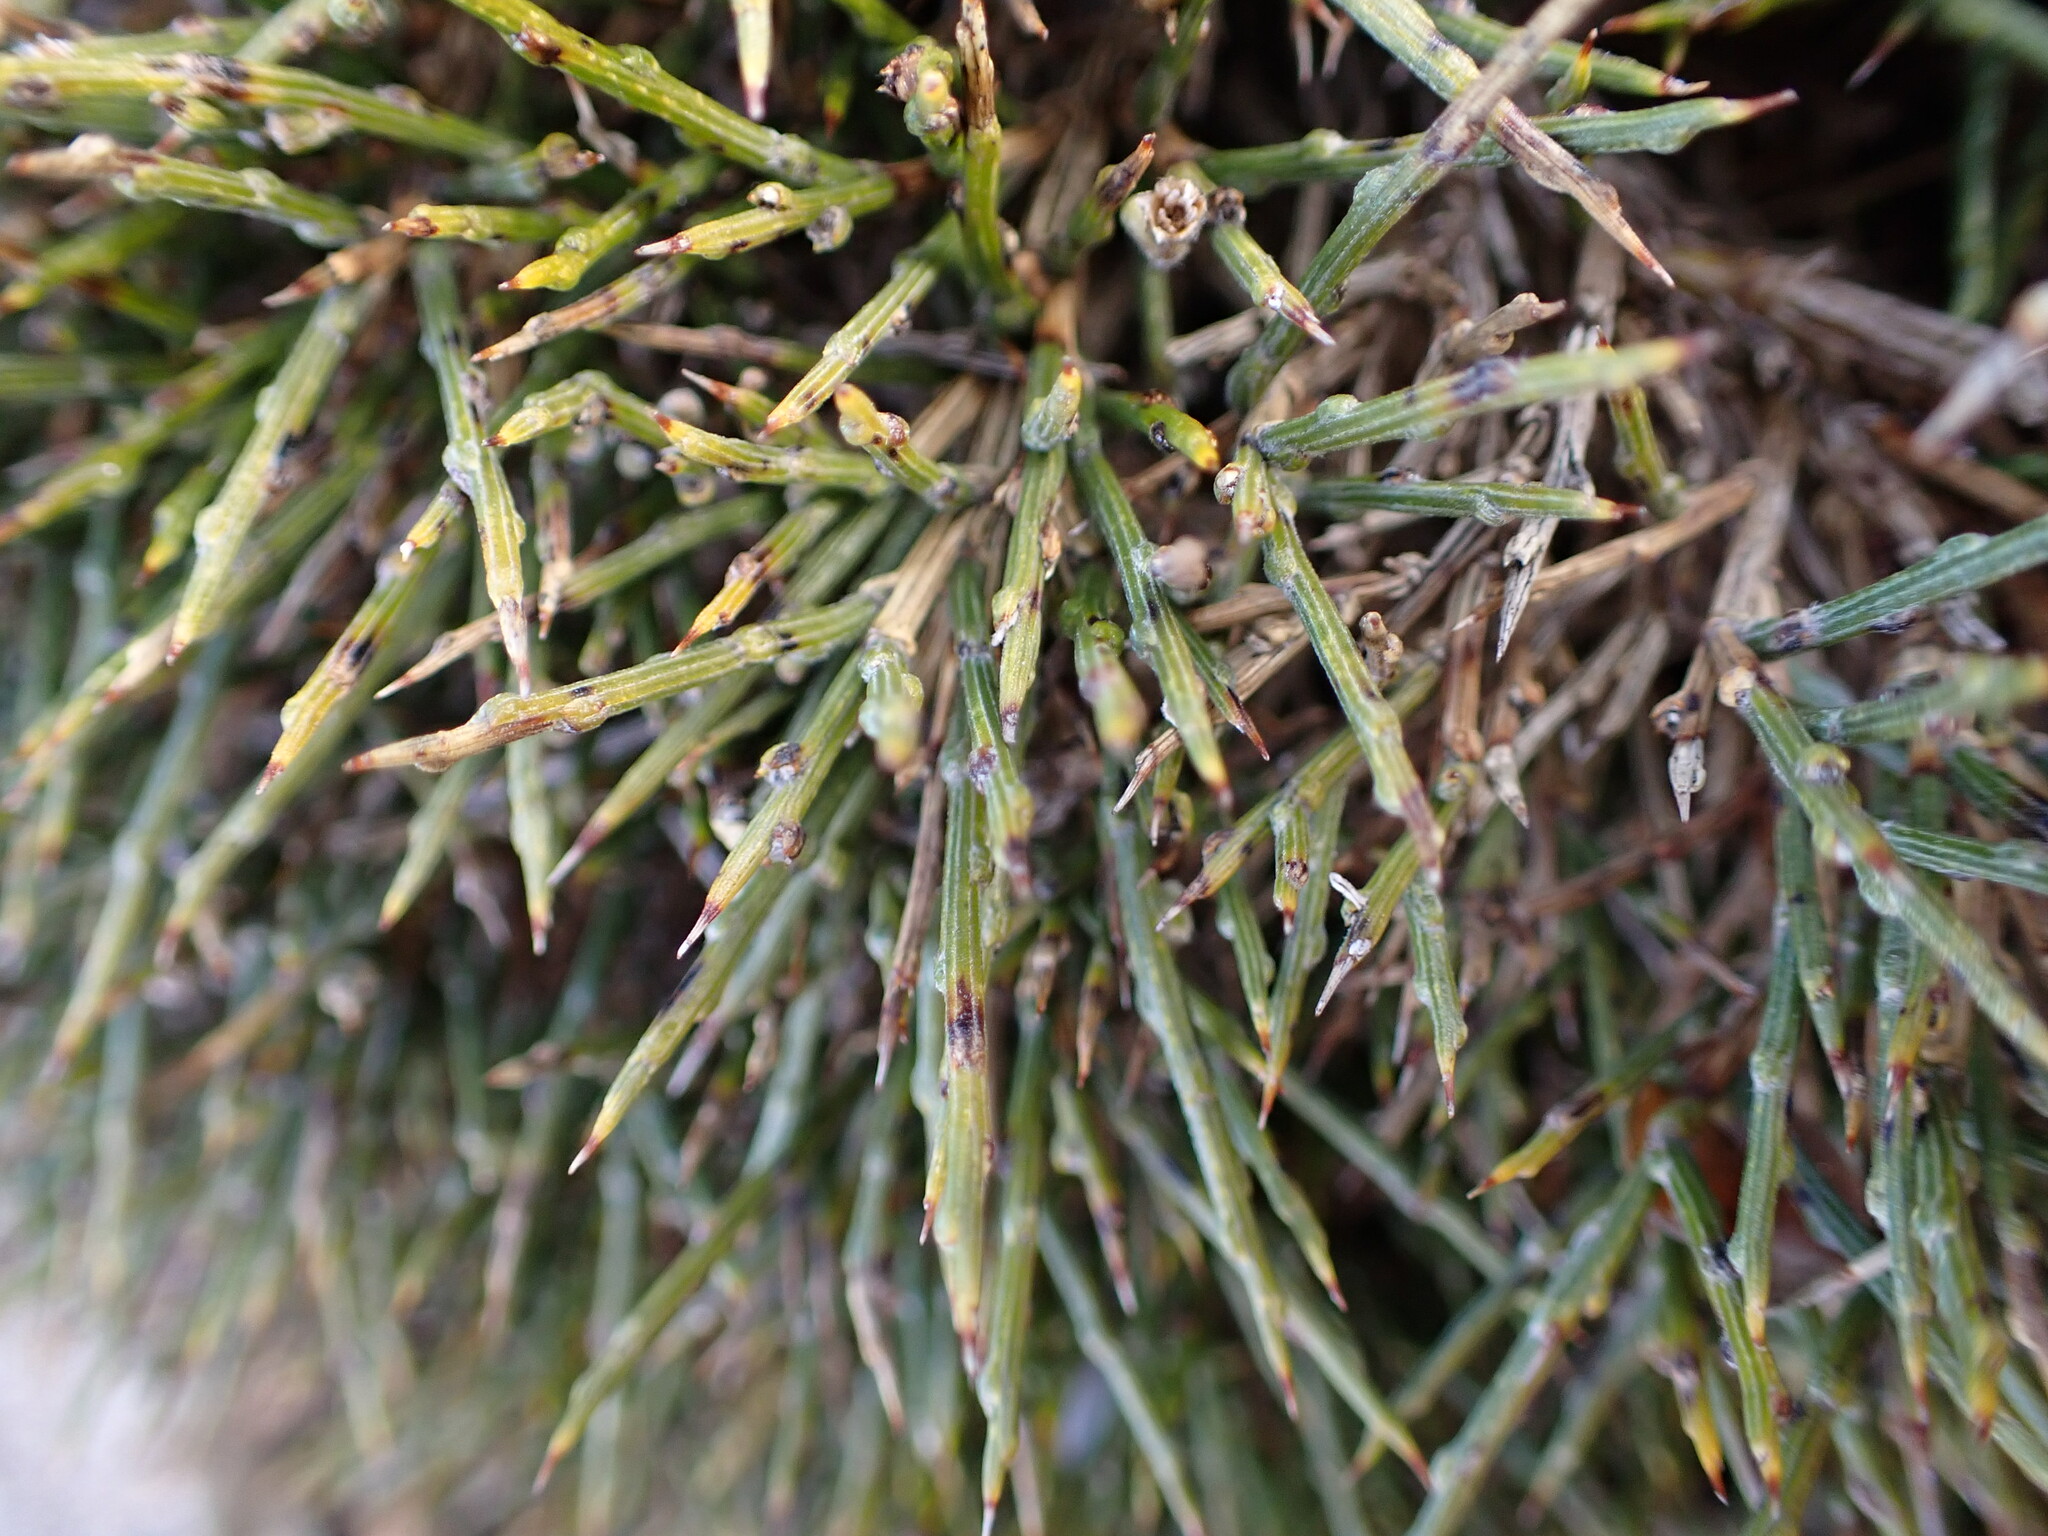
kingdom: Plantae
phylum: Tracheophyta
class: Magnoliopsida
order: Fabales
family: Fabaceae
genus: Genista
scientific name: Genista lobelii
